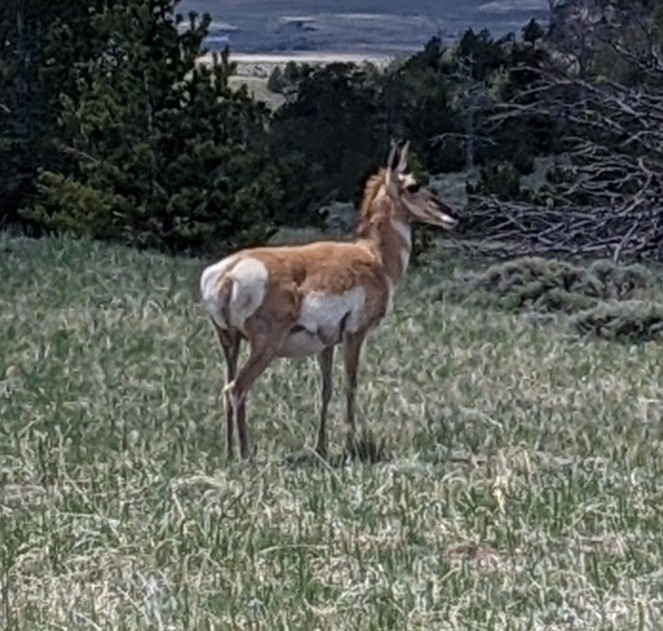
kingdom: Animalia
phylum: Chordata
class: Mammalia
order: Artiodactyla
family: Antilocapridae
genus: Antilocapra
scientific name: Antilocapra americana
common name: Pronghorn
